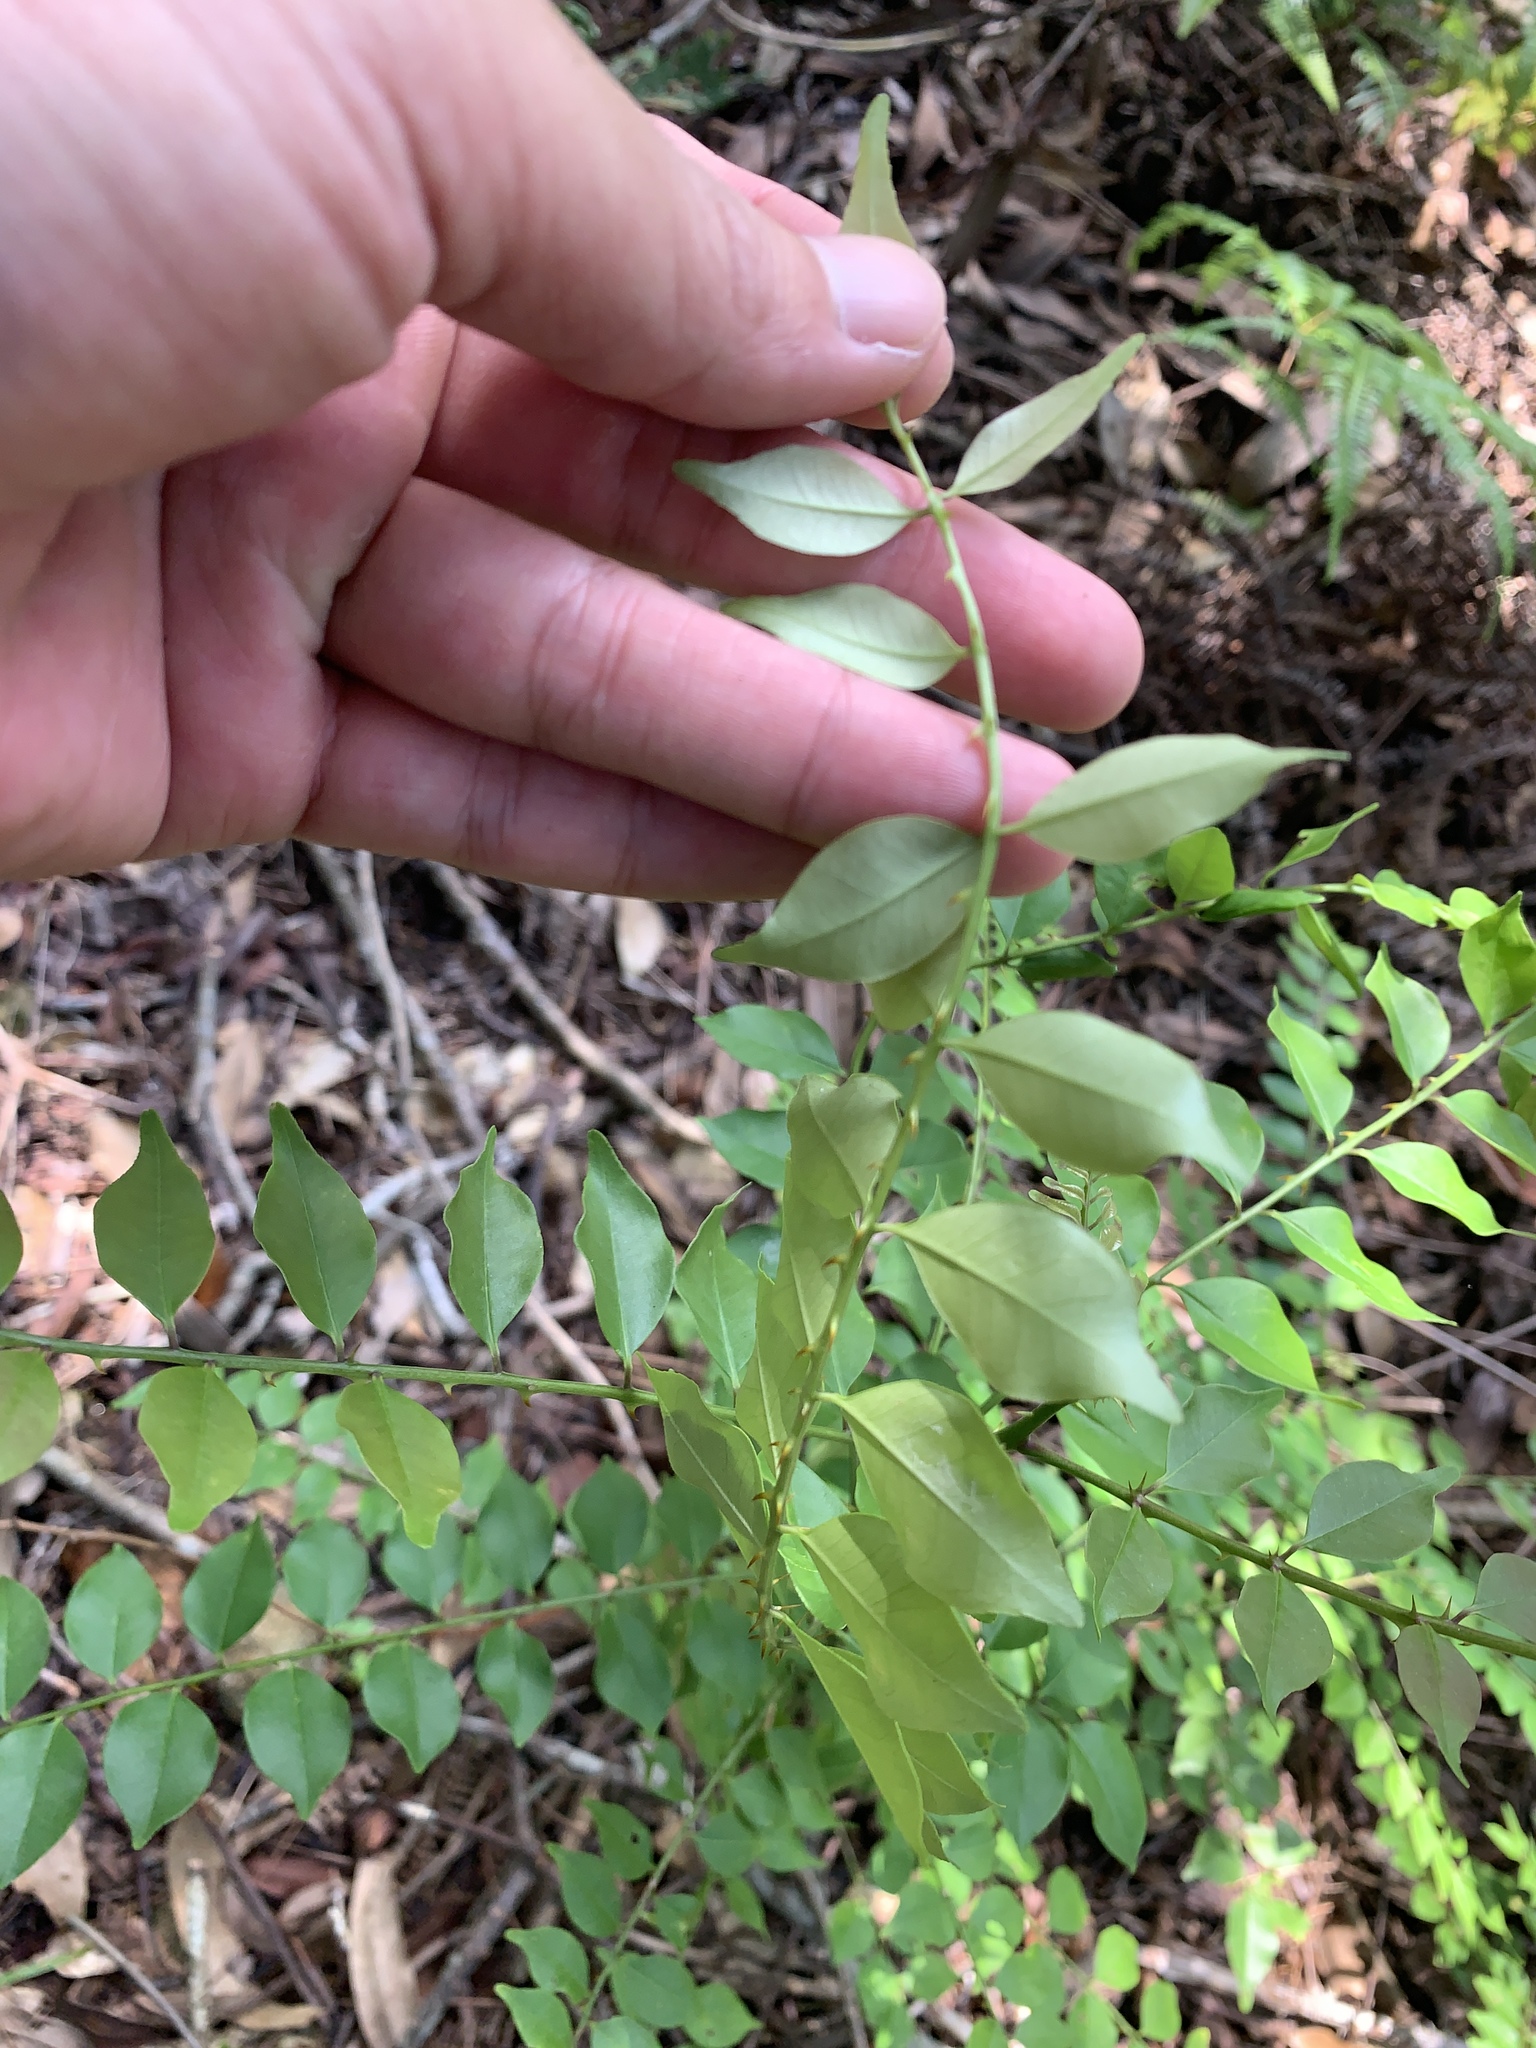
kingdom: Plantae
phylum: Tracheophyta
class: Magnoliopsida
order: Sapindales
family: Rutaceae
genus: Zanthoxylum
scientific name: Zanthoxylum scandens
